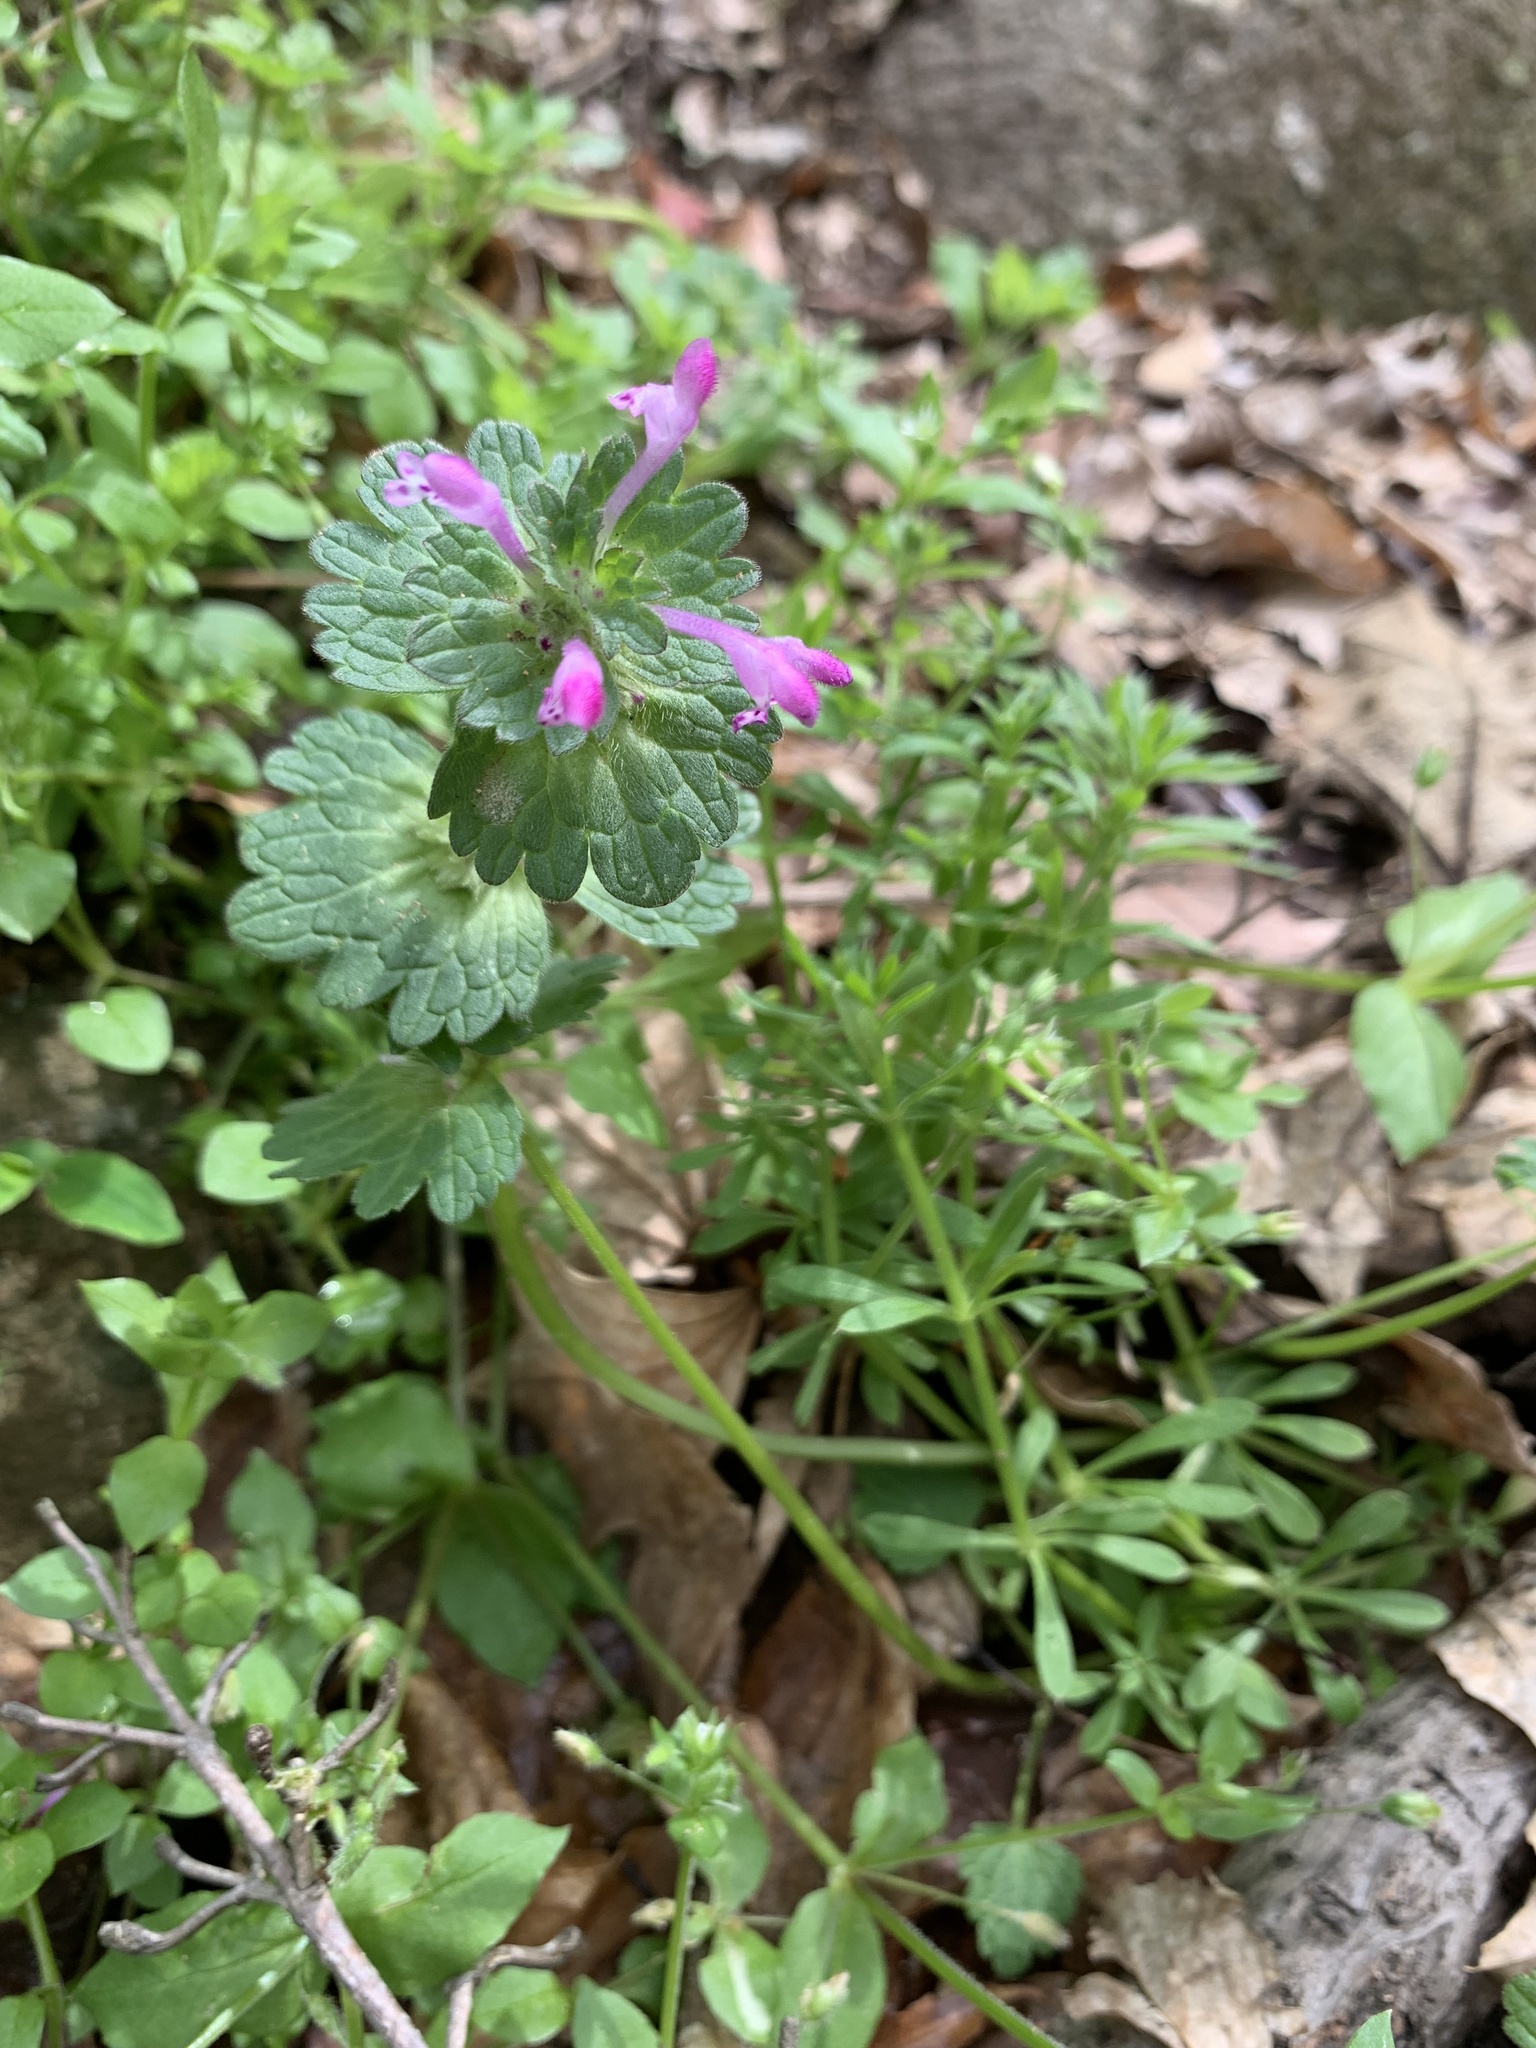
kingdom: Plantae
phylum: Tracheophyta
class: Magnoliopsida
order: Lamiales
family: Lamiaceae
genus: Lamium
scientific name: Lamium amplexicaule
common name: Henbit dead-nettle
